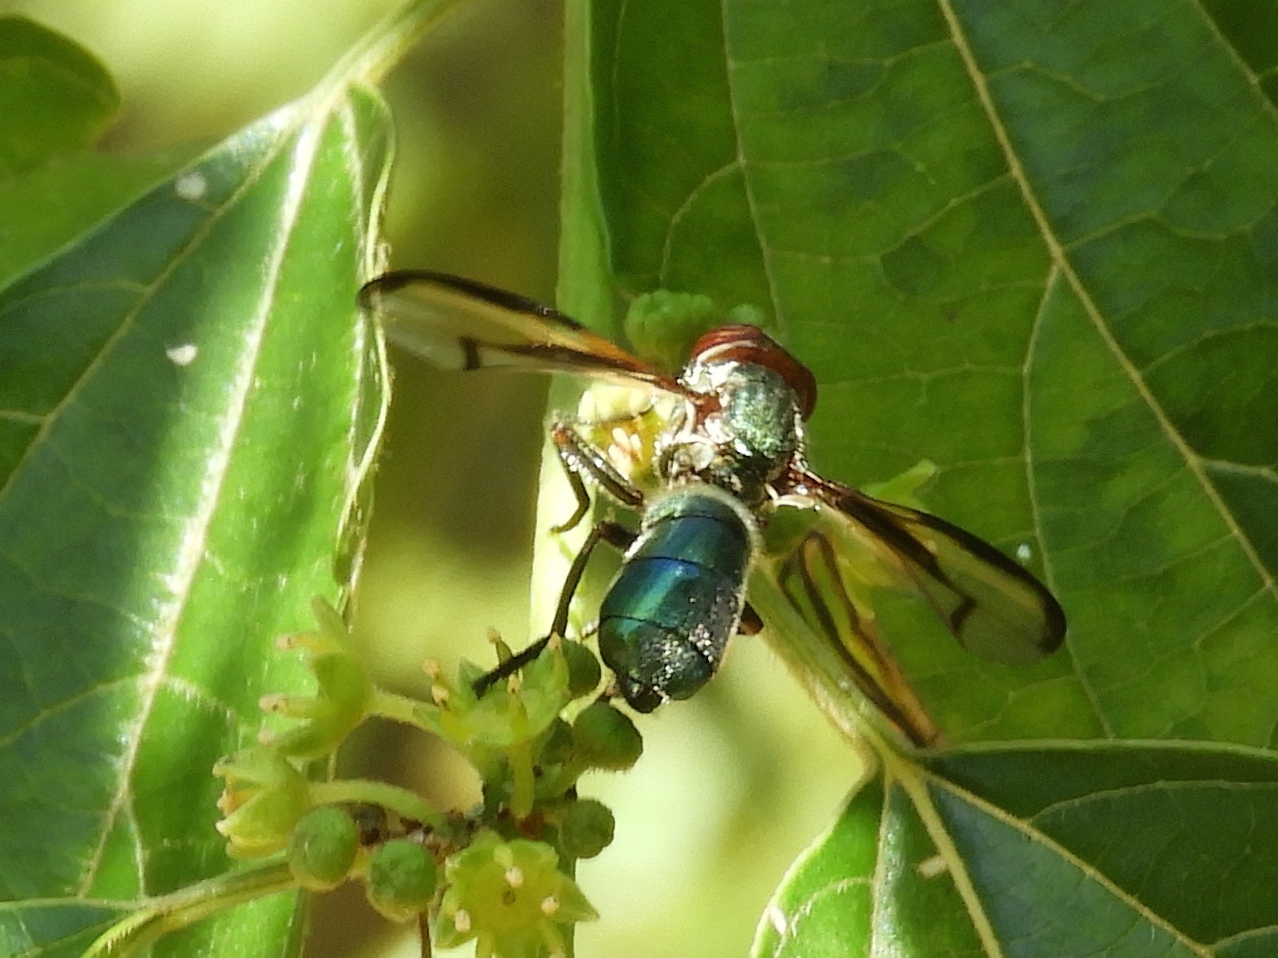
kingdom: Animalia
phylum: Arthropoda
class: Insecta
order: Diptera
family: Platystomatidae
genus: Senopterina
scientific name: Senopterina
